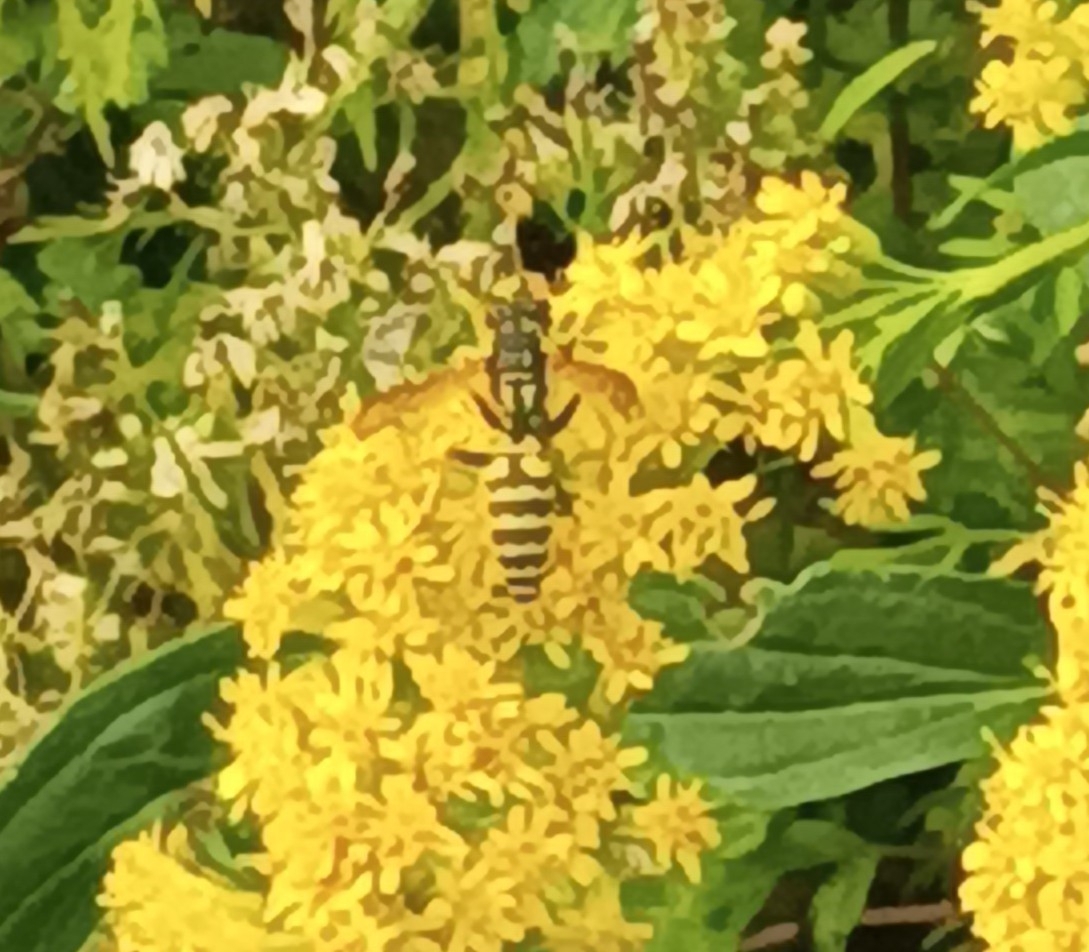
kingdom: Animalia
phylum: Arthropoda
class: Insecta
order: Hymenoptera
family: Eumenidae
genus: Polistes
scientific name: Polistes dominula
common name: Paper wasp
